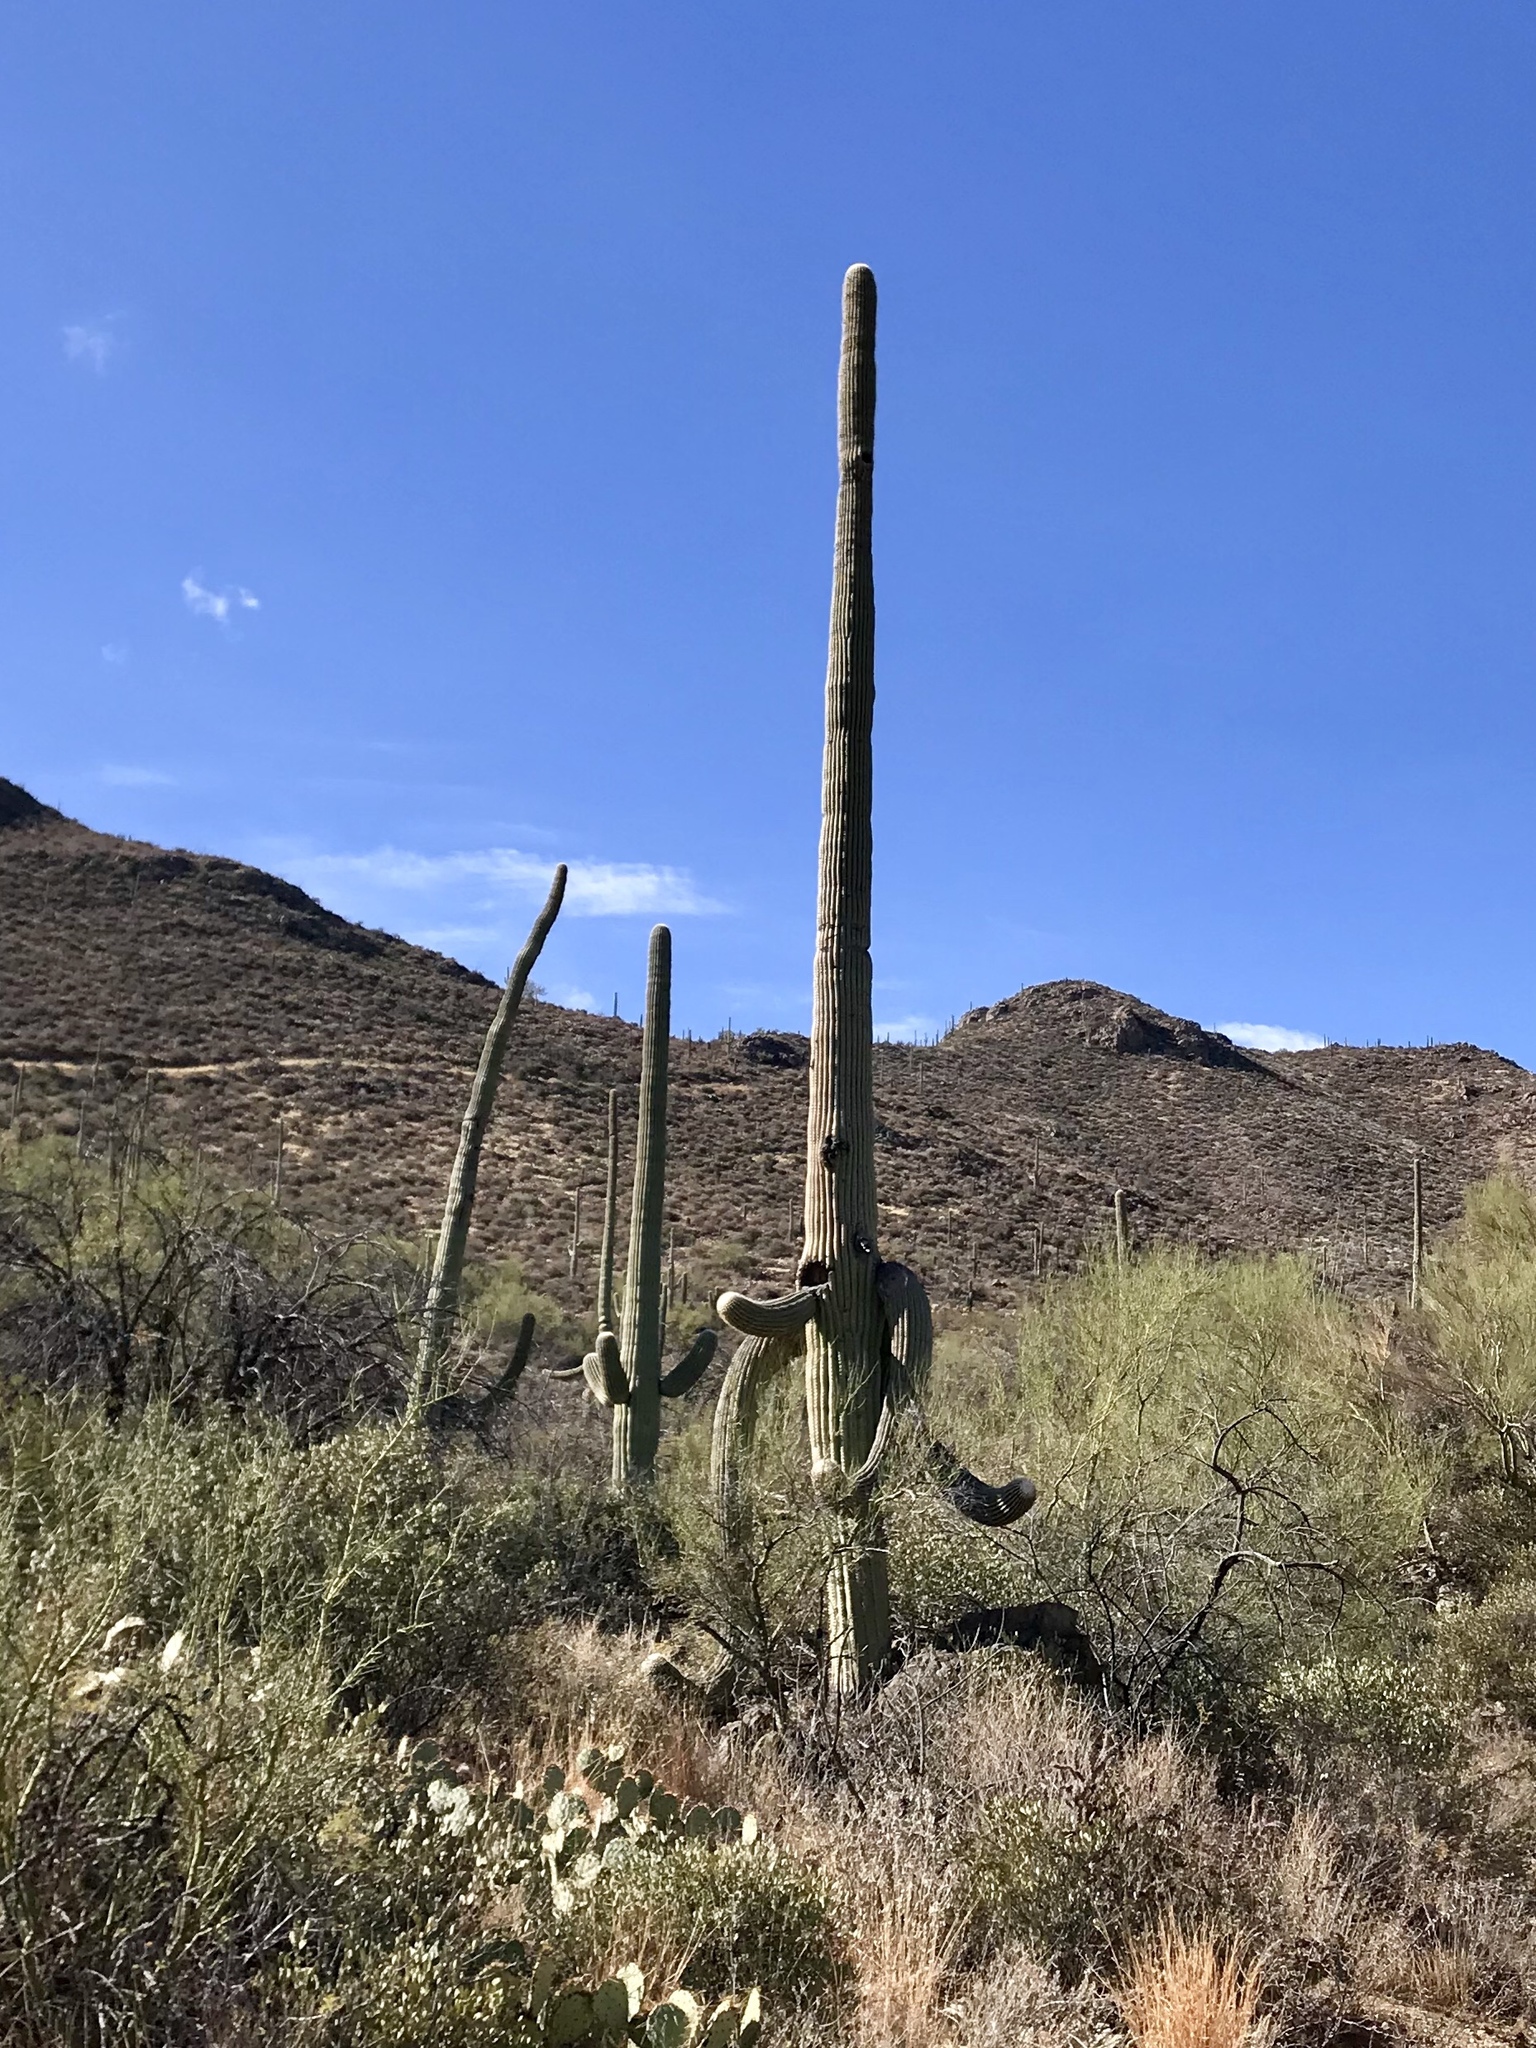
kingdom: Plantae
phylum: Tracheophyta
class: Magnoliopsida
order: Caryophyllales
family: Cactaceae
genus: Carnegiea
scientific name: Carnegiea gigantea
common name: Saguaro
